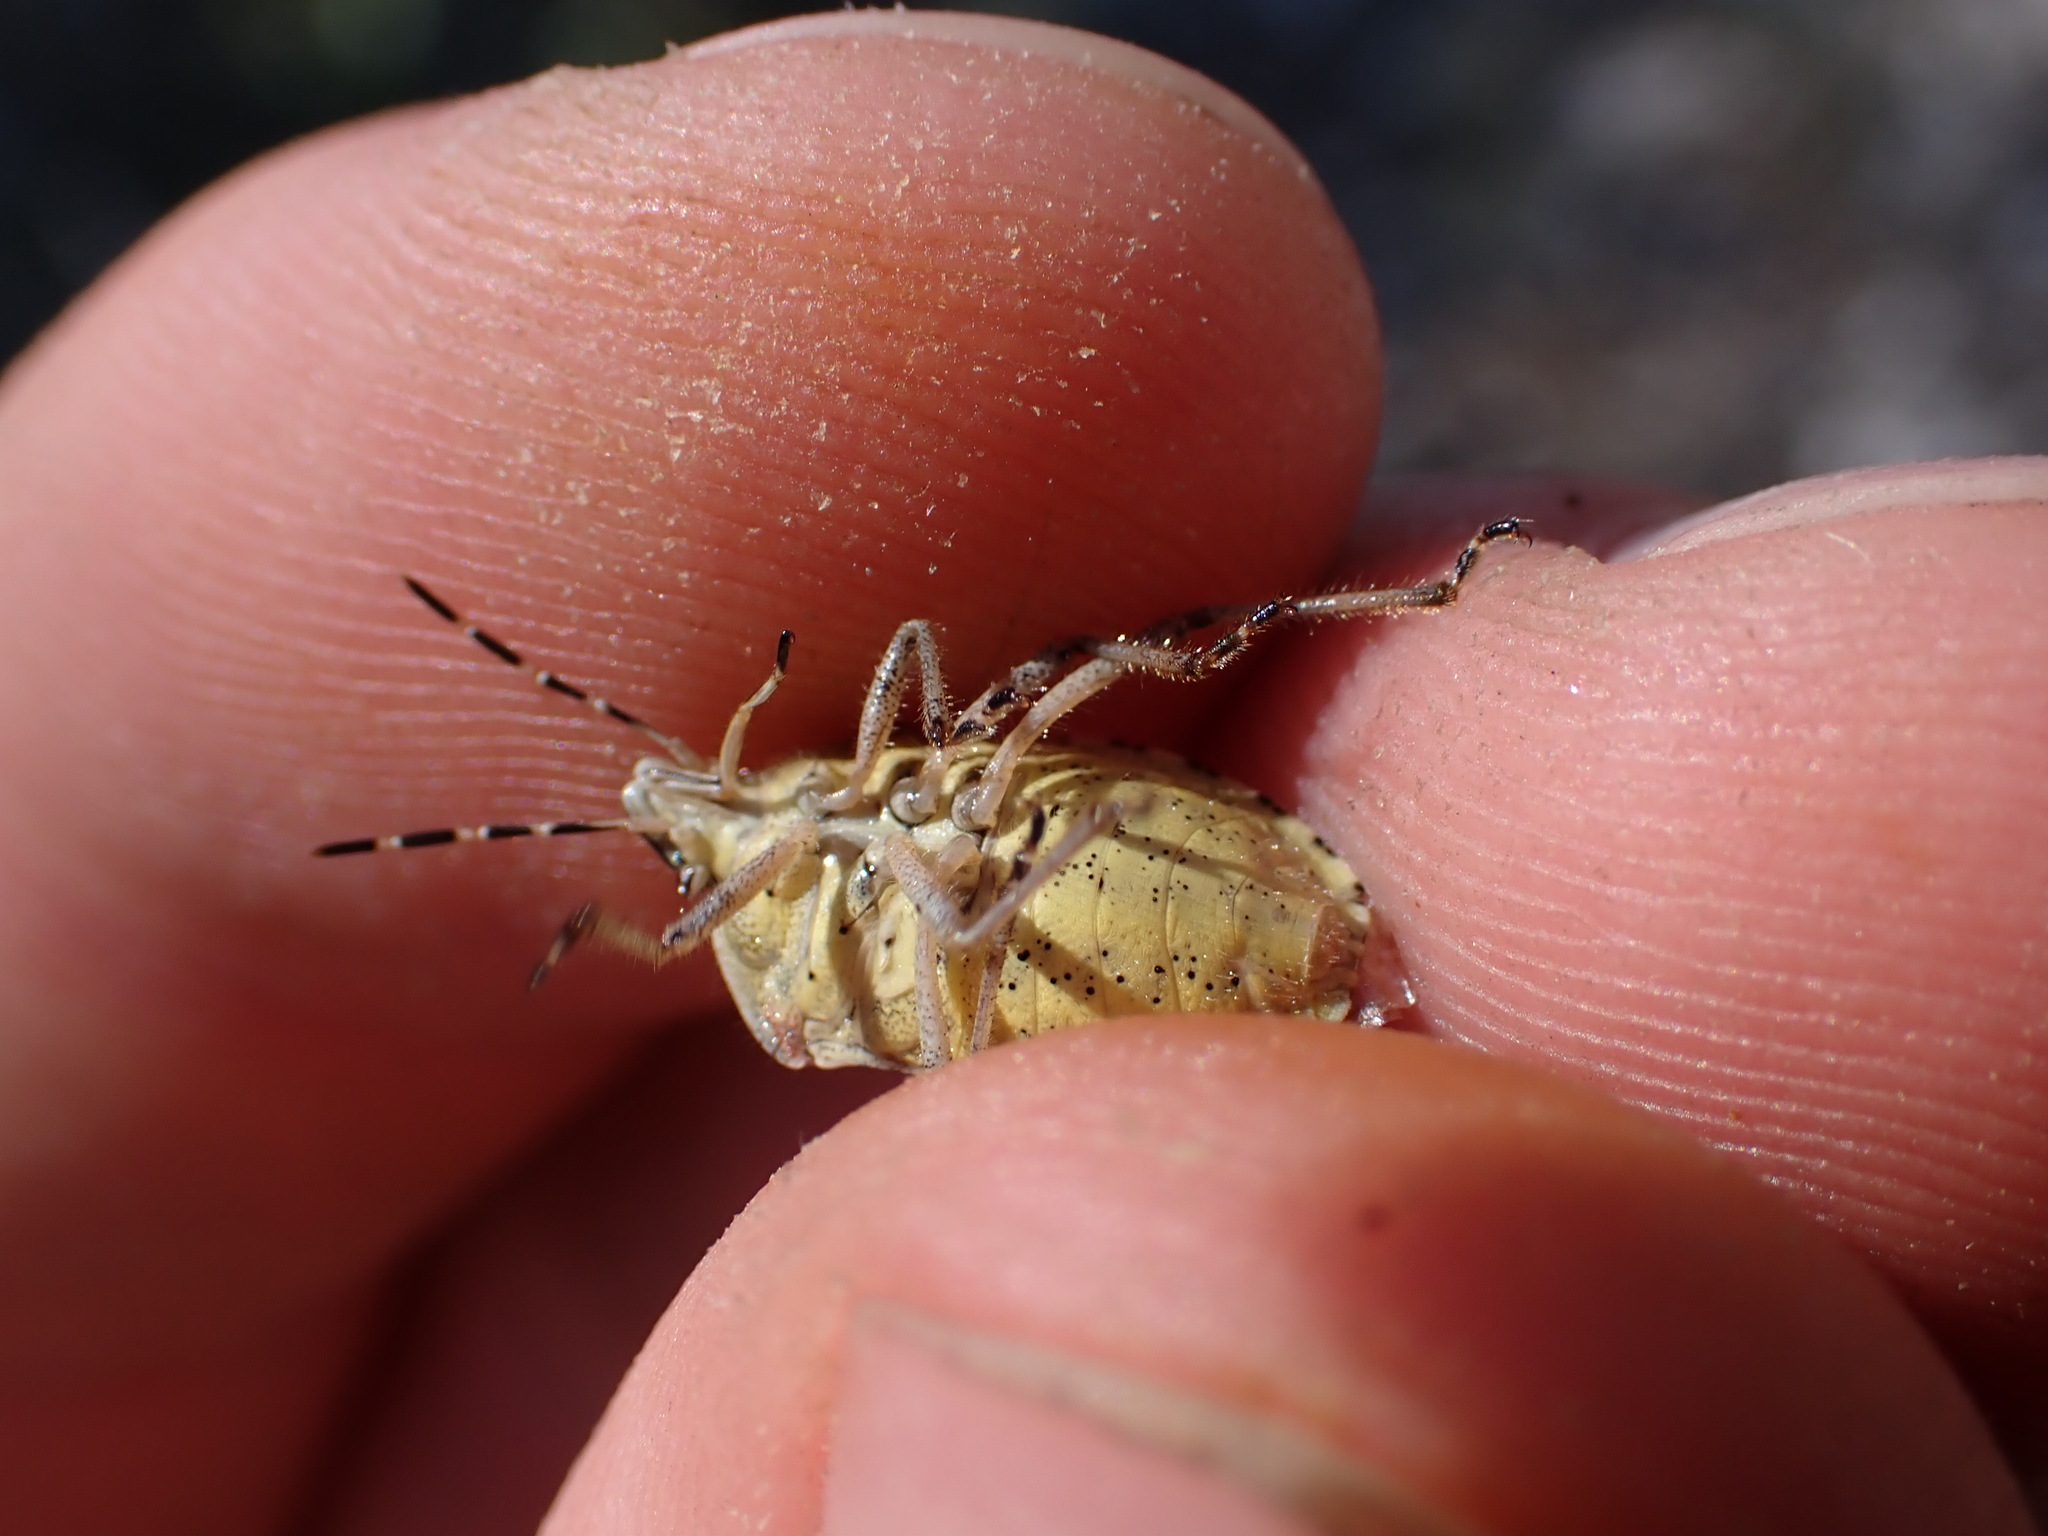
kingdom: Animalia
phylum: Arthropoda
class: Insecta
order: Hemiptera
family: Pentatomidae
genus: Dolycoris
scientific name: Dolycoris baccarum
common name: Sloe bug
